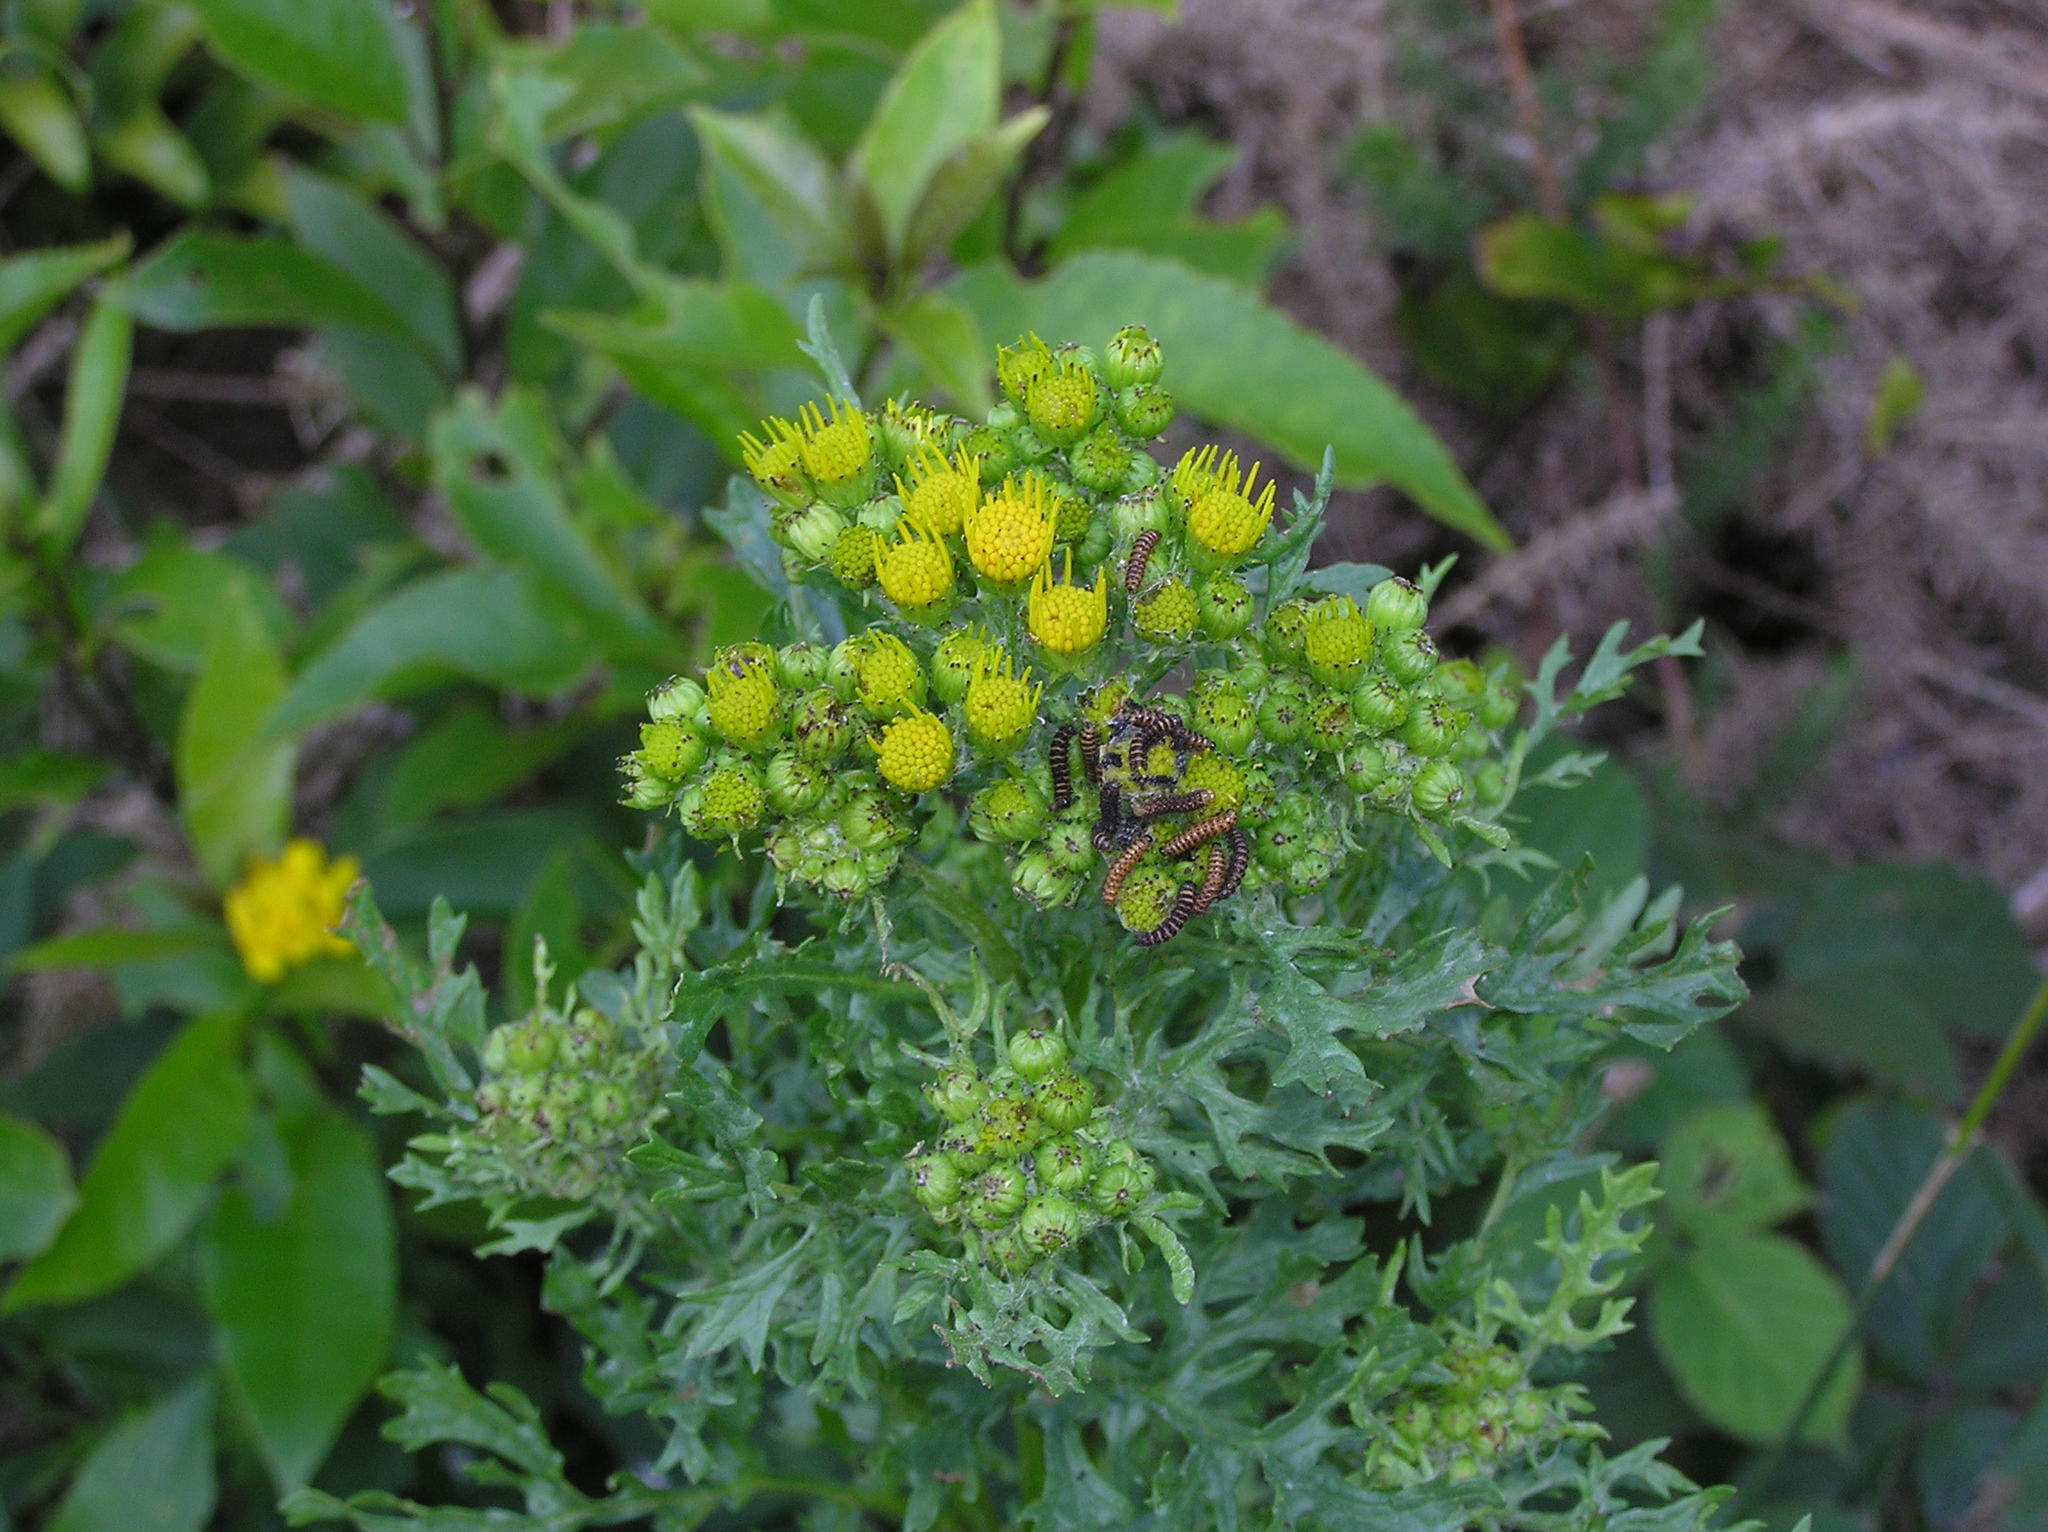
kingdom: Animalia
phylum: Arthropoda
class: Insecta
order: Lepidoptera
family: Erebidae
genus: Tyria
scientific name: Tyria jacobaeae
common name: Cinnabar
